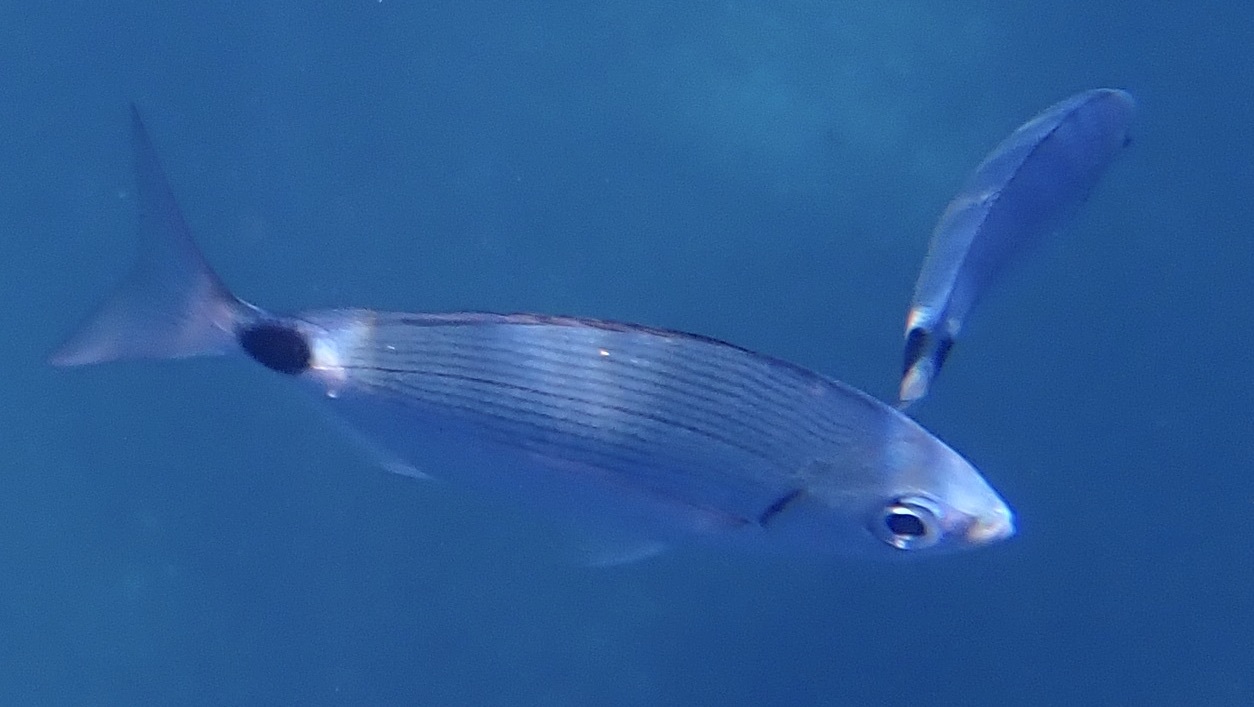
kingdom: Animalia
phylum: Chordata
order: Perciformes
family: Sparidae
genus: Oblada
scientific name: Oblada melanura
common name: Saddled seabream
